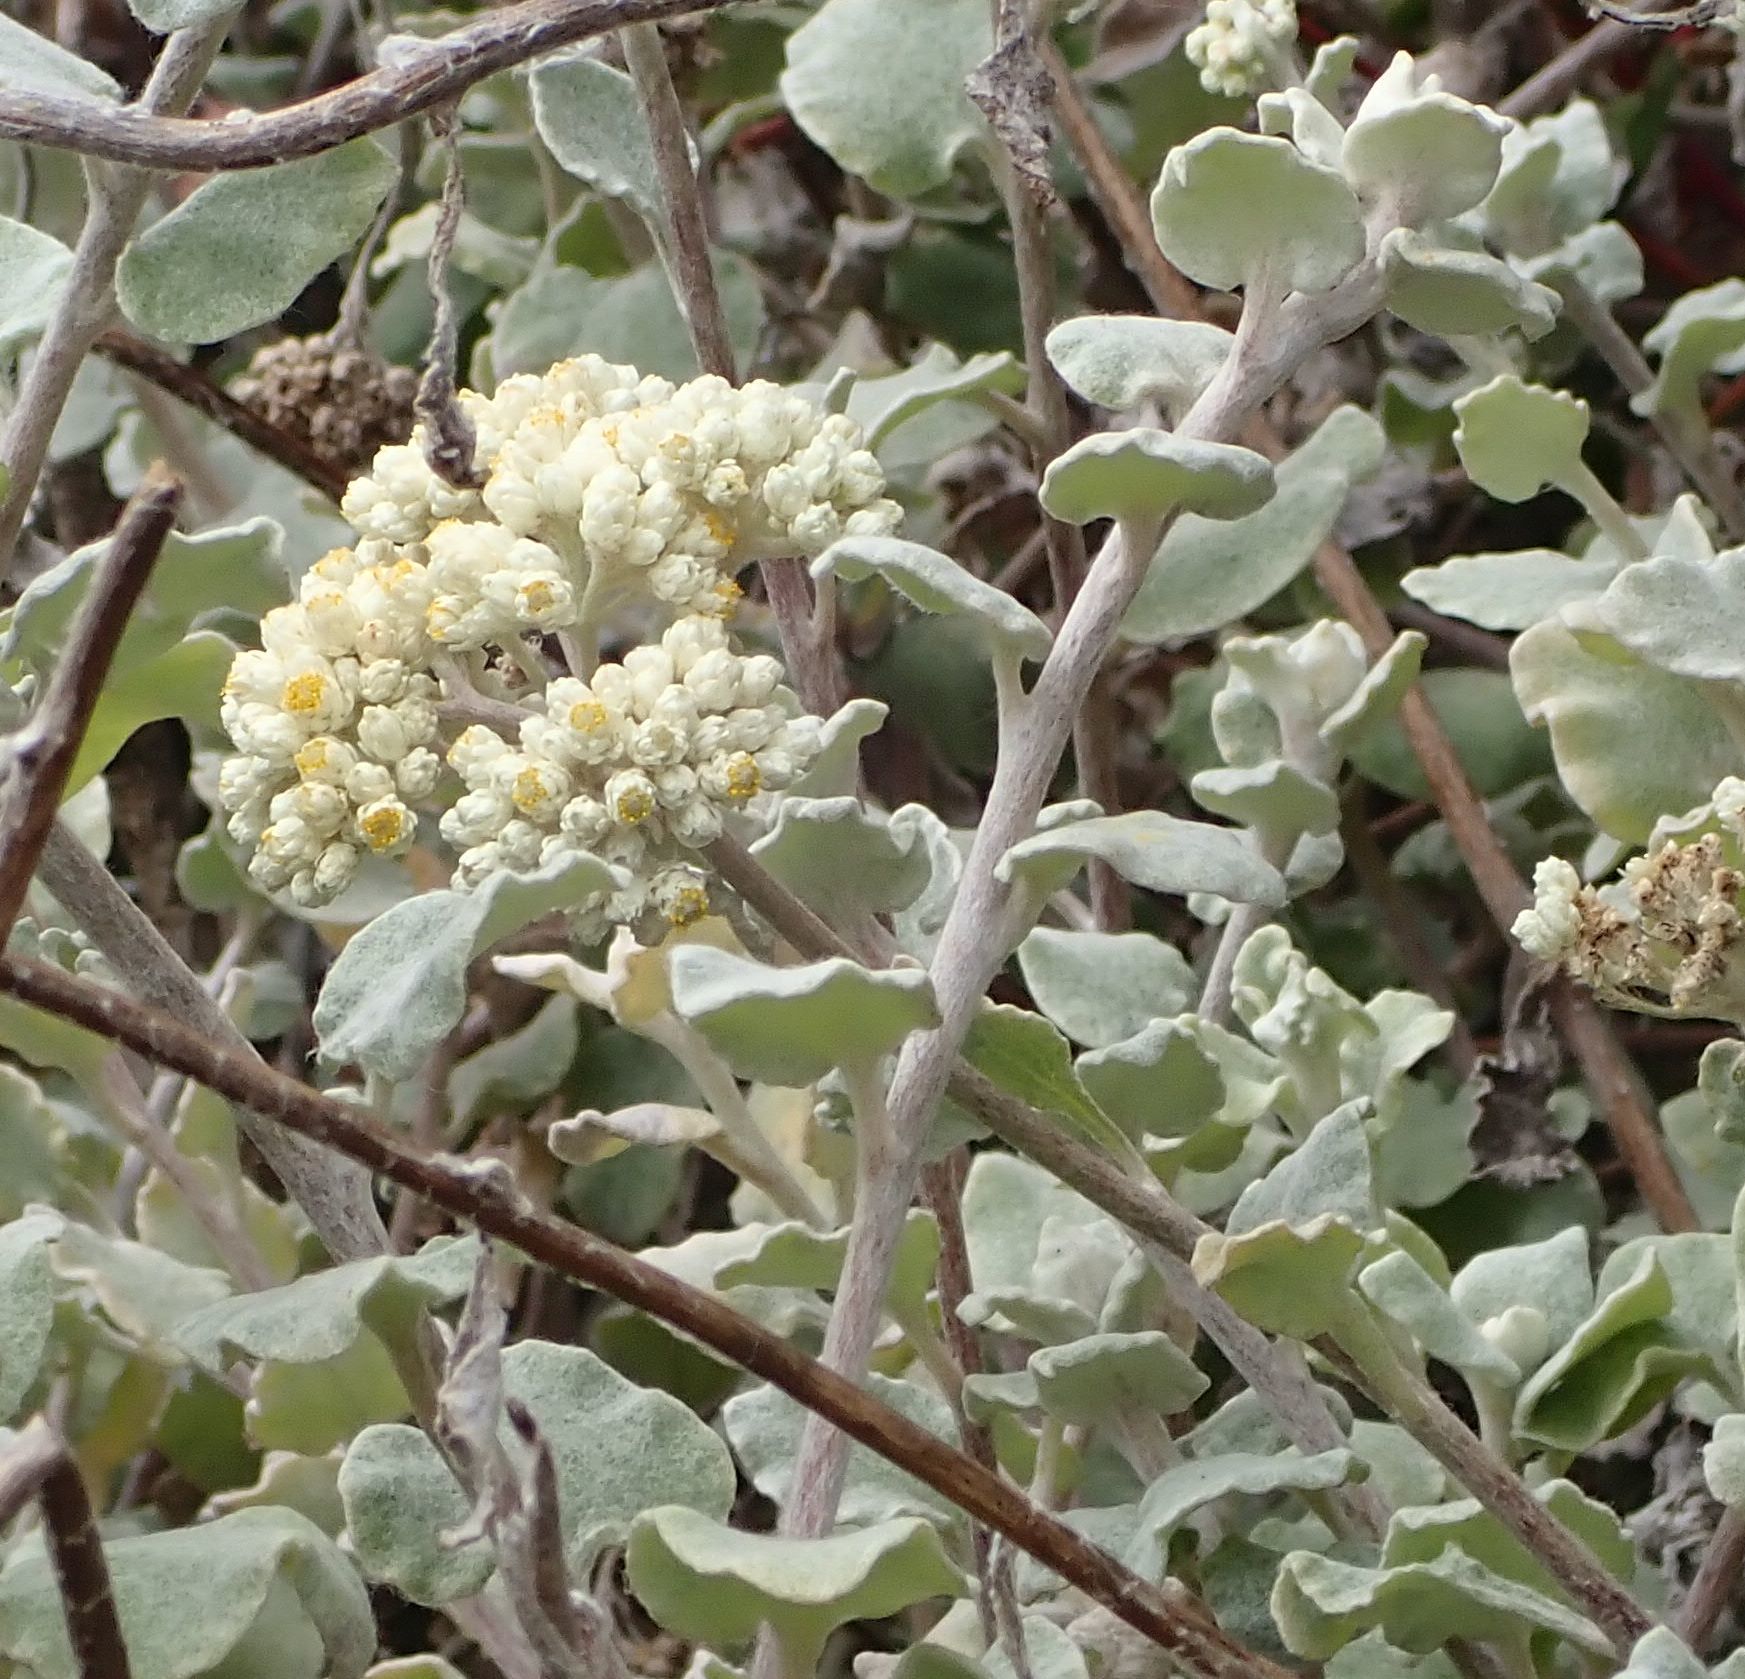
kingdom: Plantae
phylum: Tracheophyta
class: Magnoliopsida
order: Asterales
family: Asteraceae
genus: Helichrysum
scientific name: Helichrysum petiolare
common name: Licorice-plant
